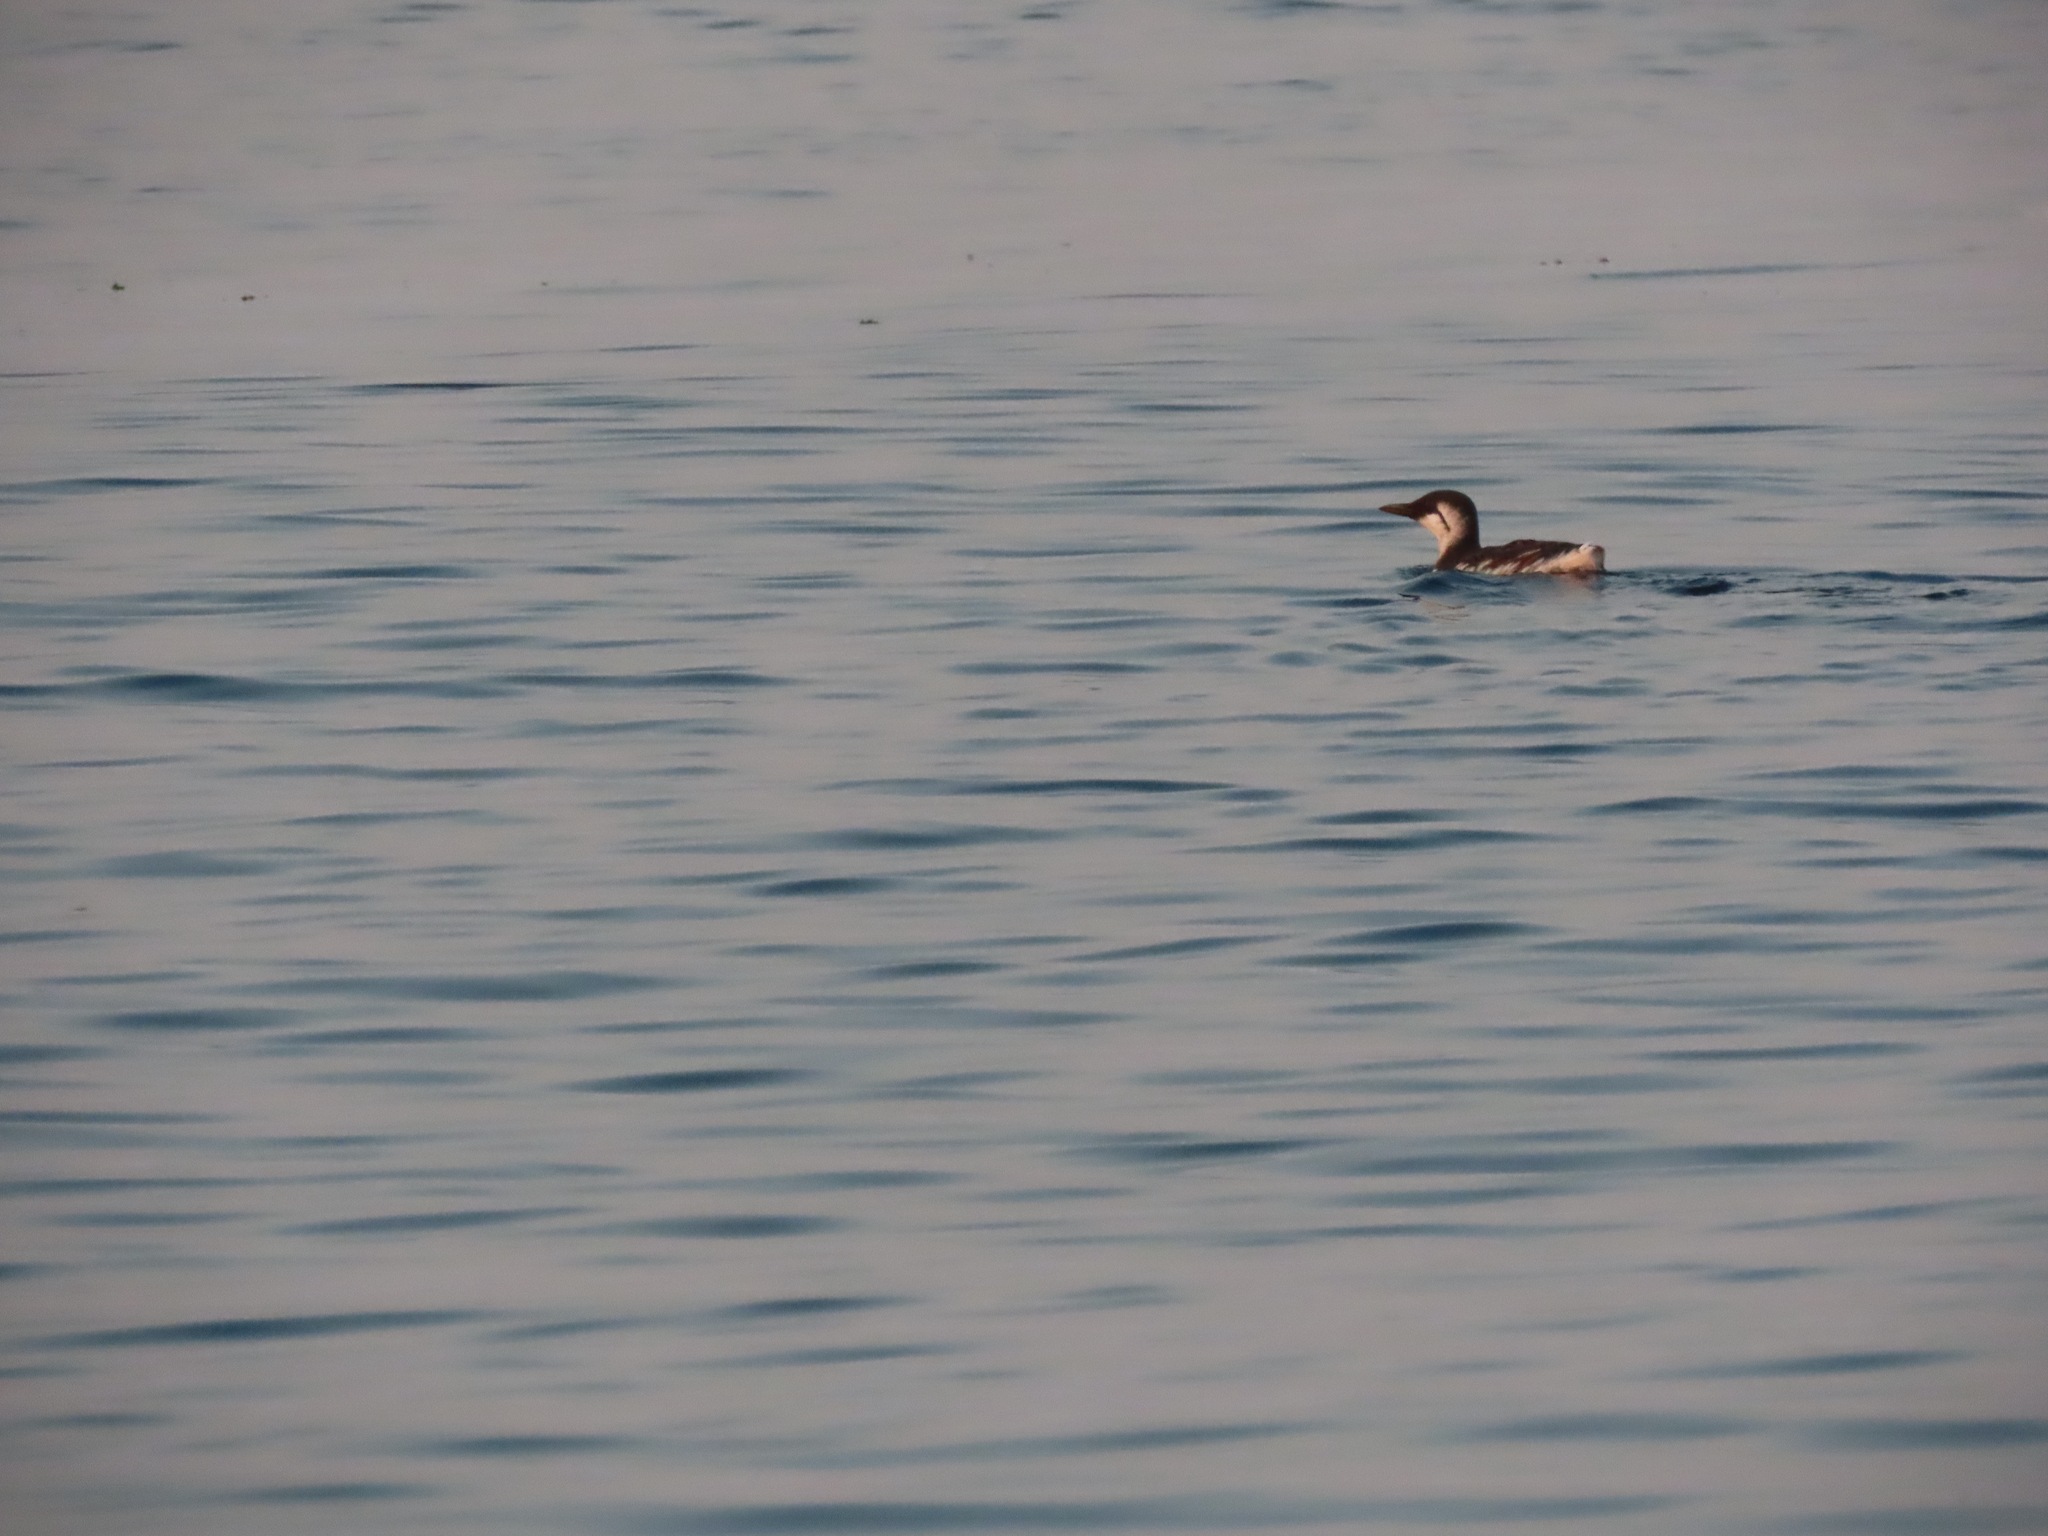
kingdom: Animalia
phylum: Chordata
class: Aves
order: Charadriiformes
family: Alcidae
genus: Uria
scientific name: Uria aalge
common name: Common murre
